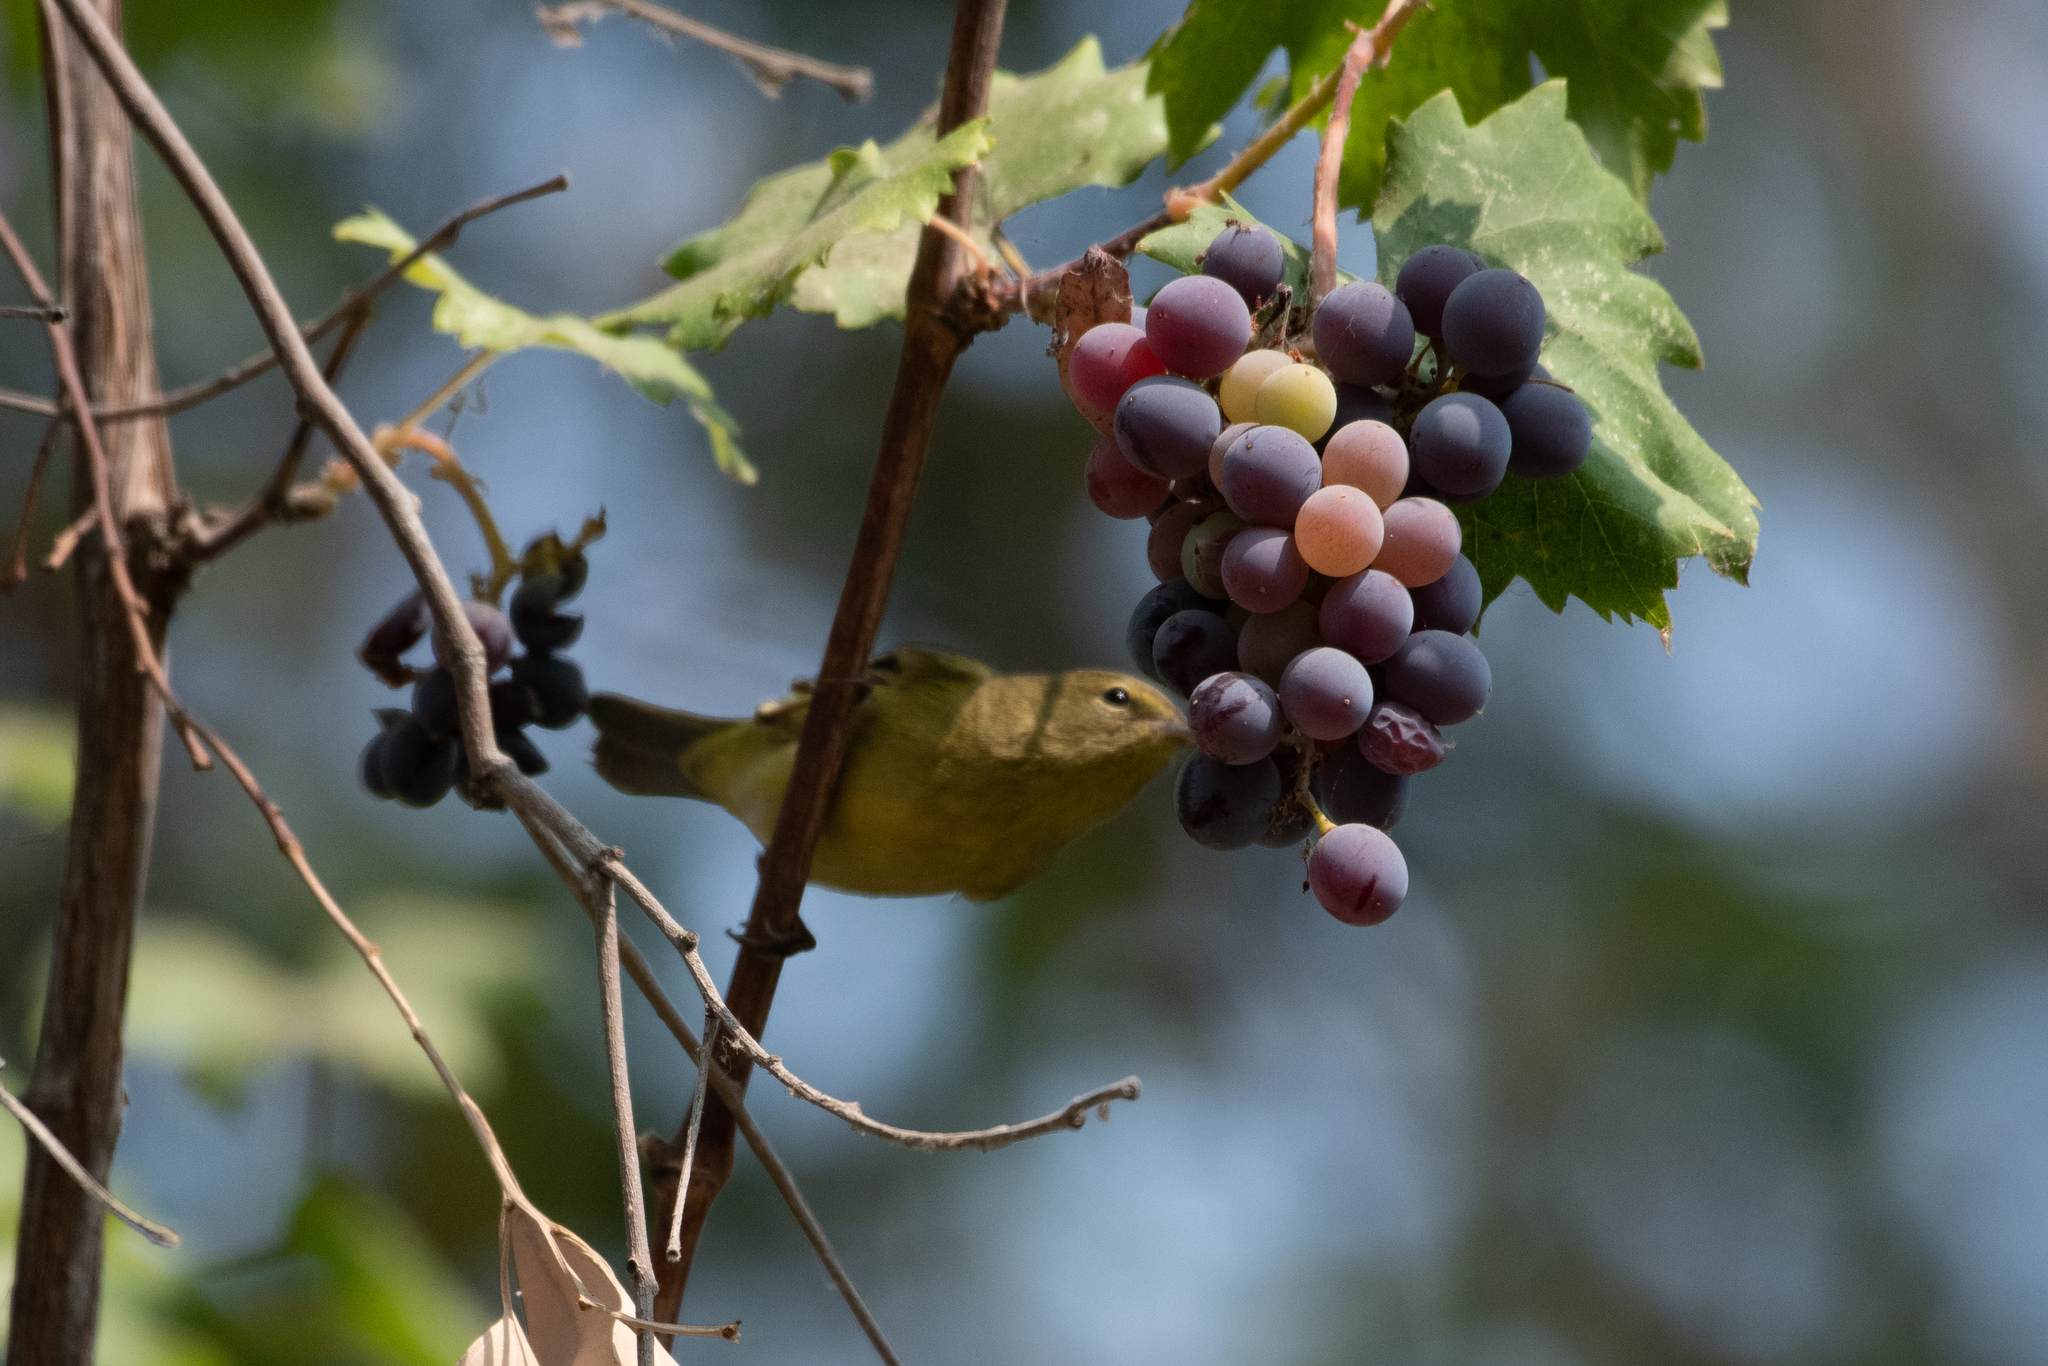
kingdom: Animalia
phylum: Chordata
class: Aves
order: Passeriformes
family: Parulidae
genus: Leiothlypis
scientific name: Leiothlypis celata
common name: Orange-crowned warbler
